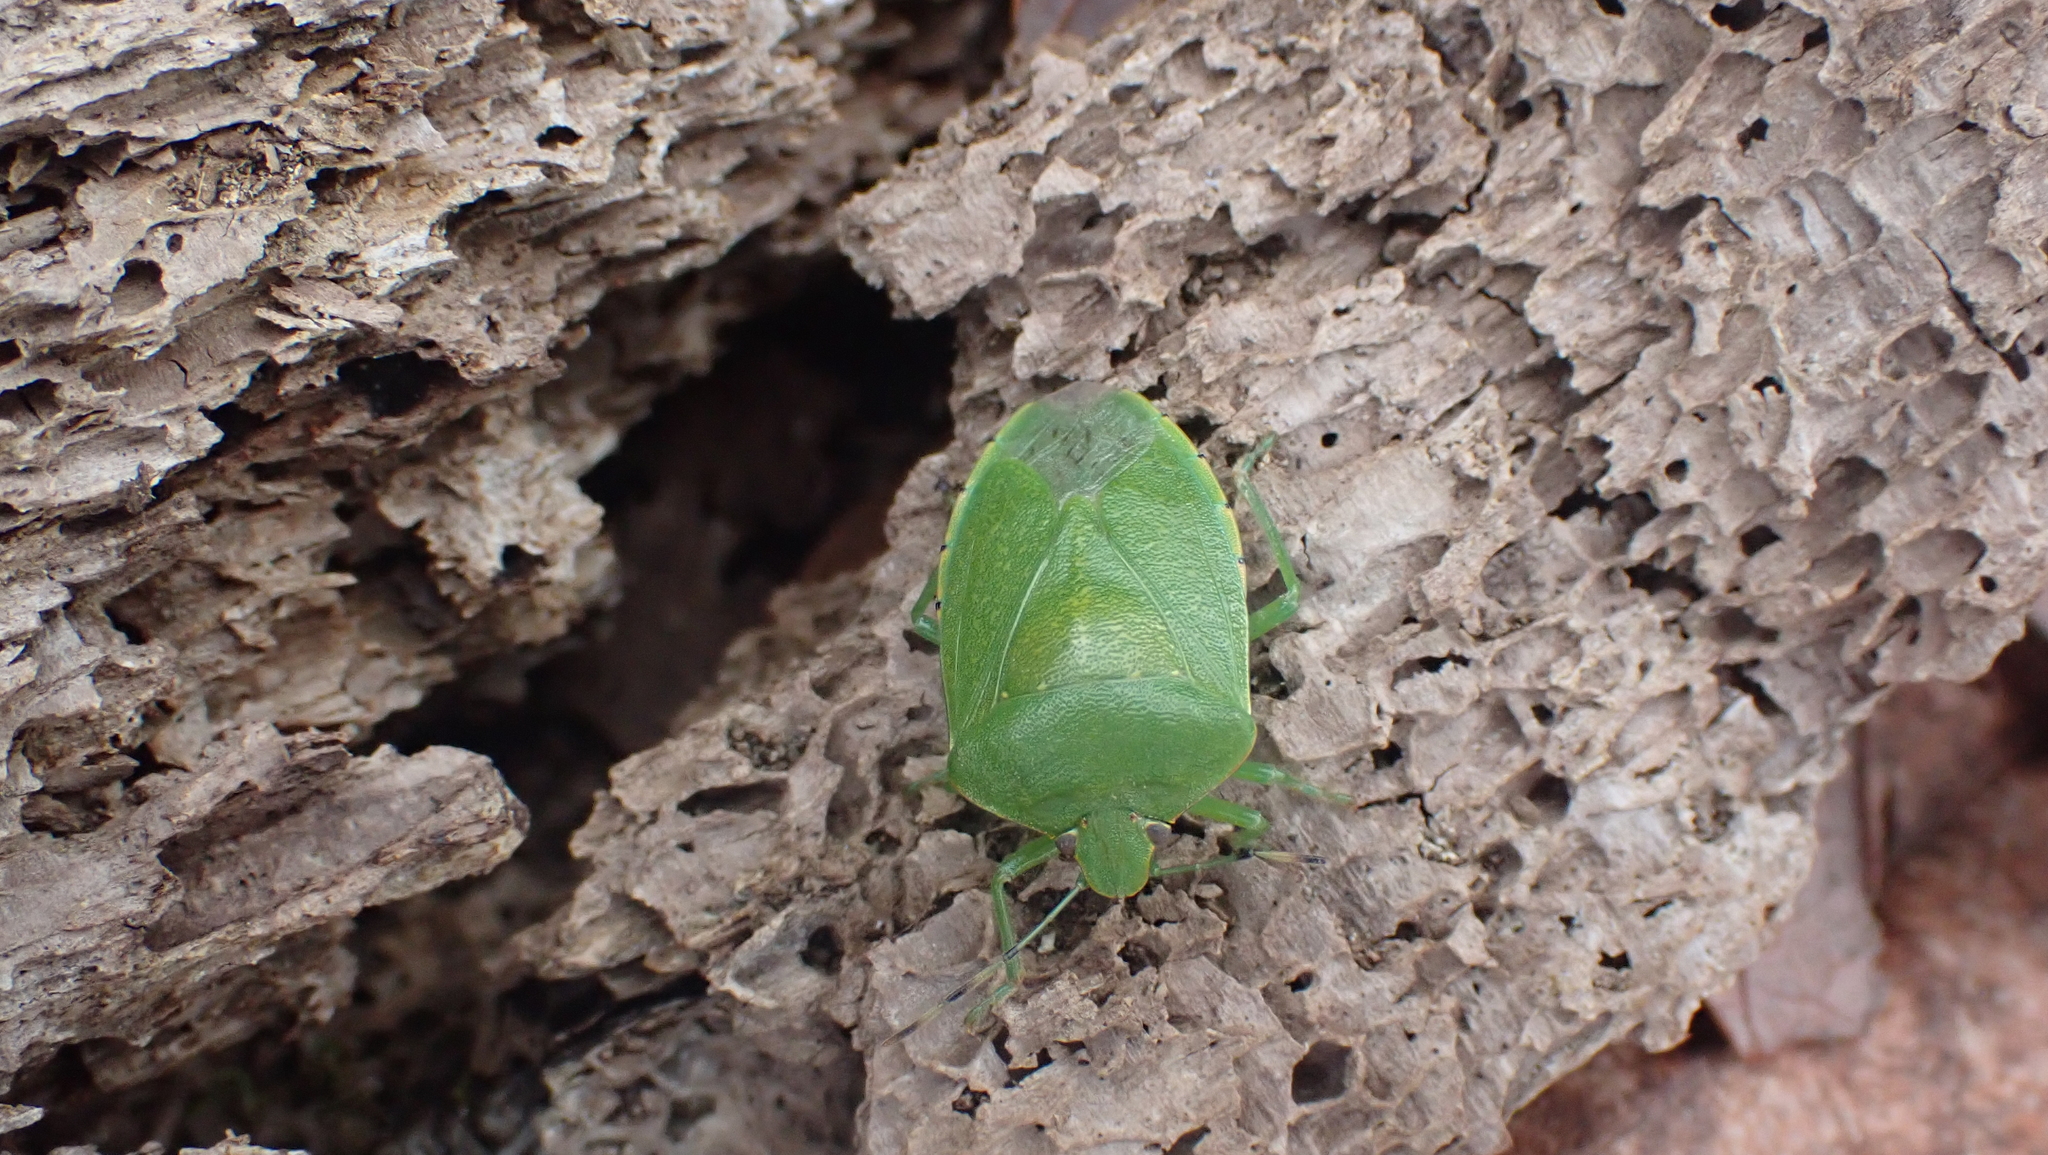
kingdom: Animalia
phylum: Arthropoda
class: Insecta
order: Hemiptera
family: Pentatomidae
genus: Chinavia
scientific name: Chinavia hilaris
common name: Green stink bug
